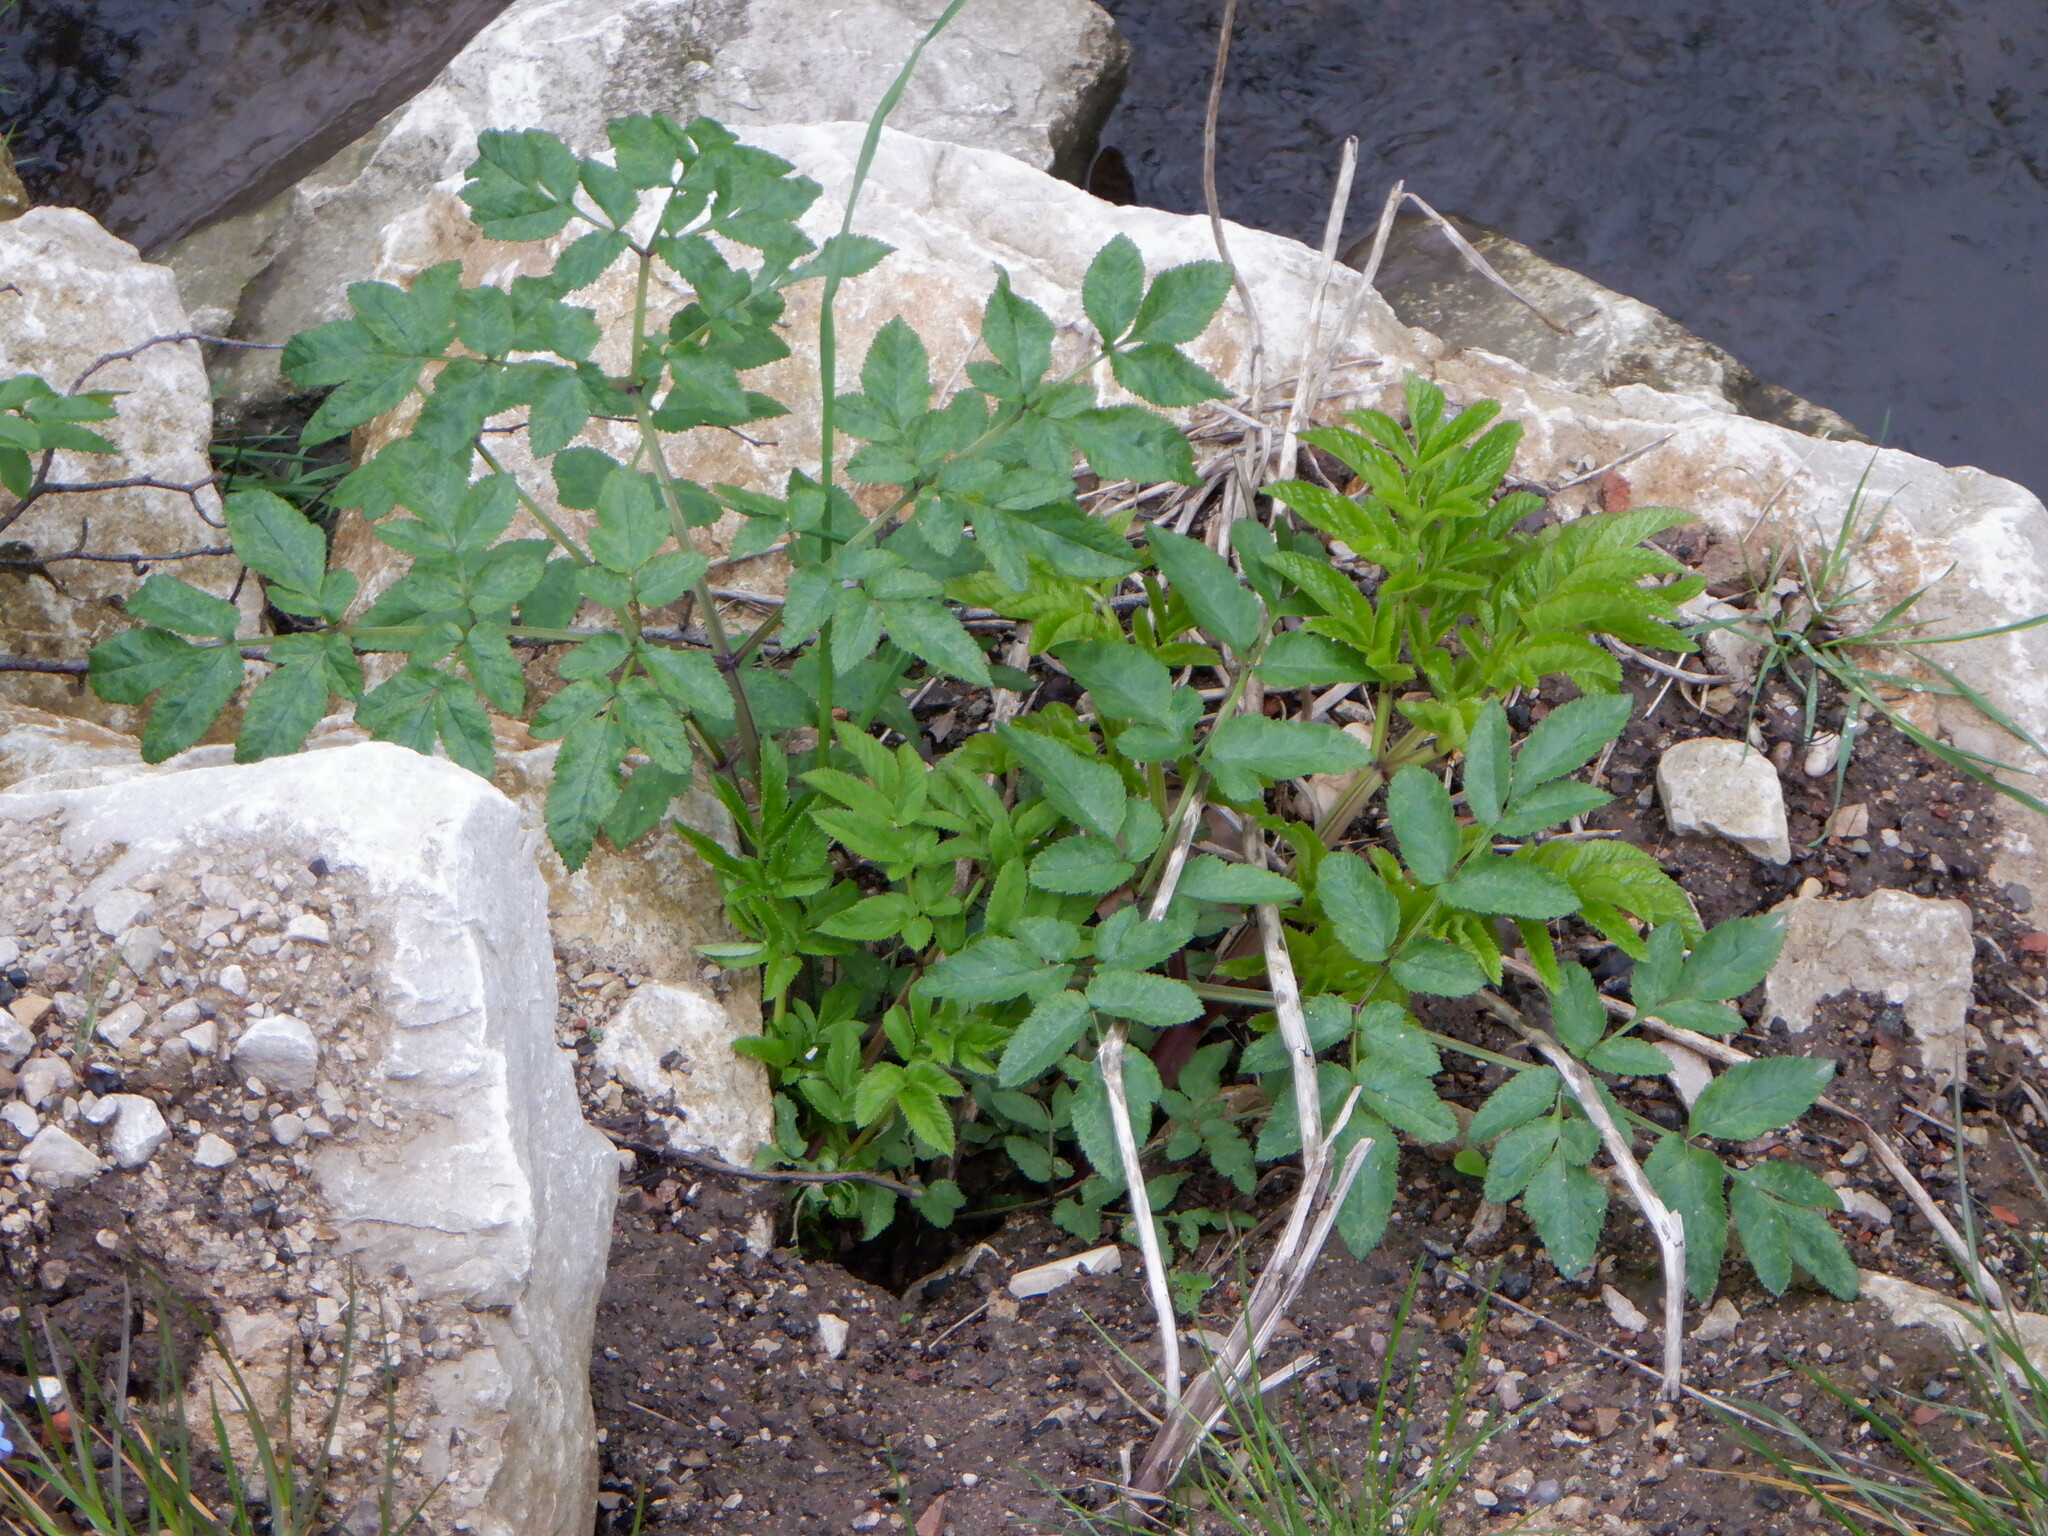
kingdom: Plantae
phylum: Tracheophyta
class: Magnoliopsida
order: Apiales
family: Apiaceae
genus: Angelica
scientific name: Angelica sylvestris
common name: Wild angelica
